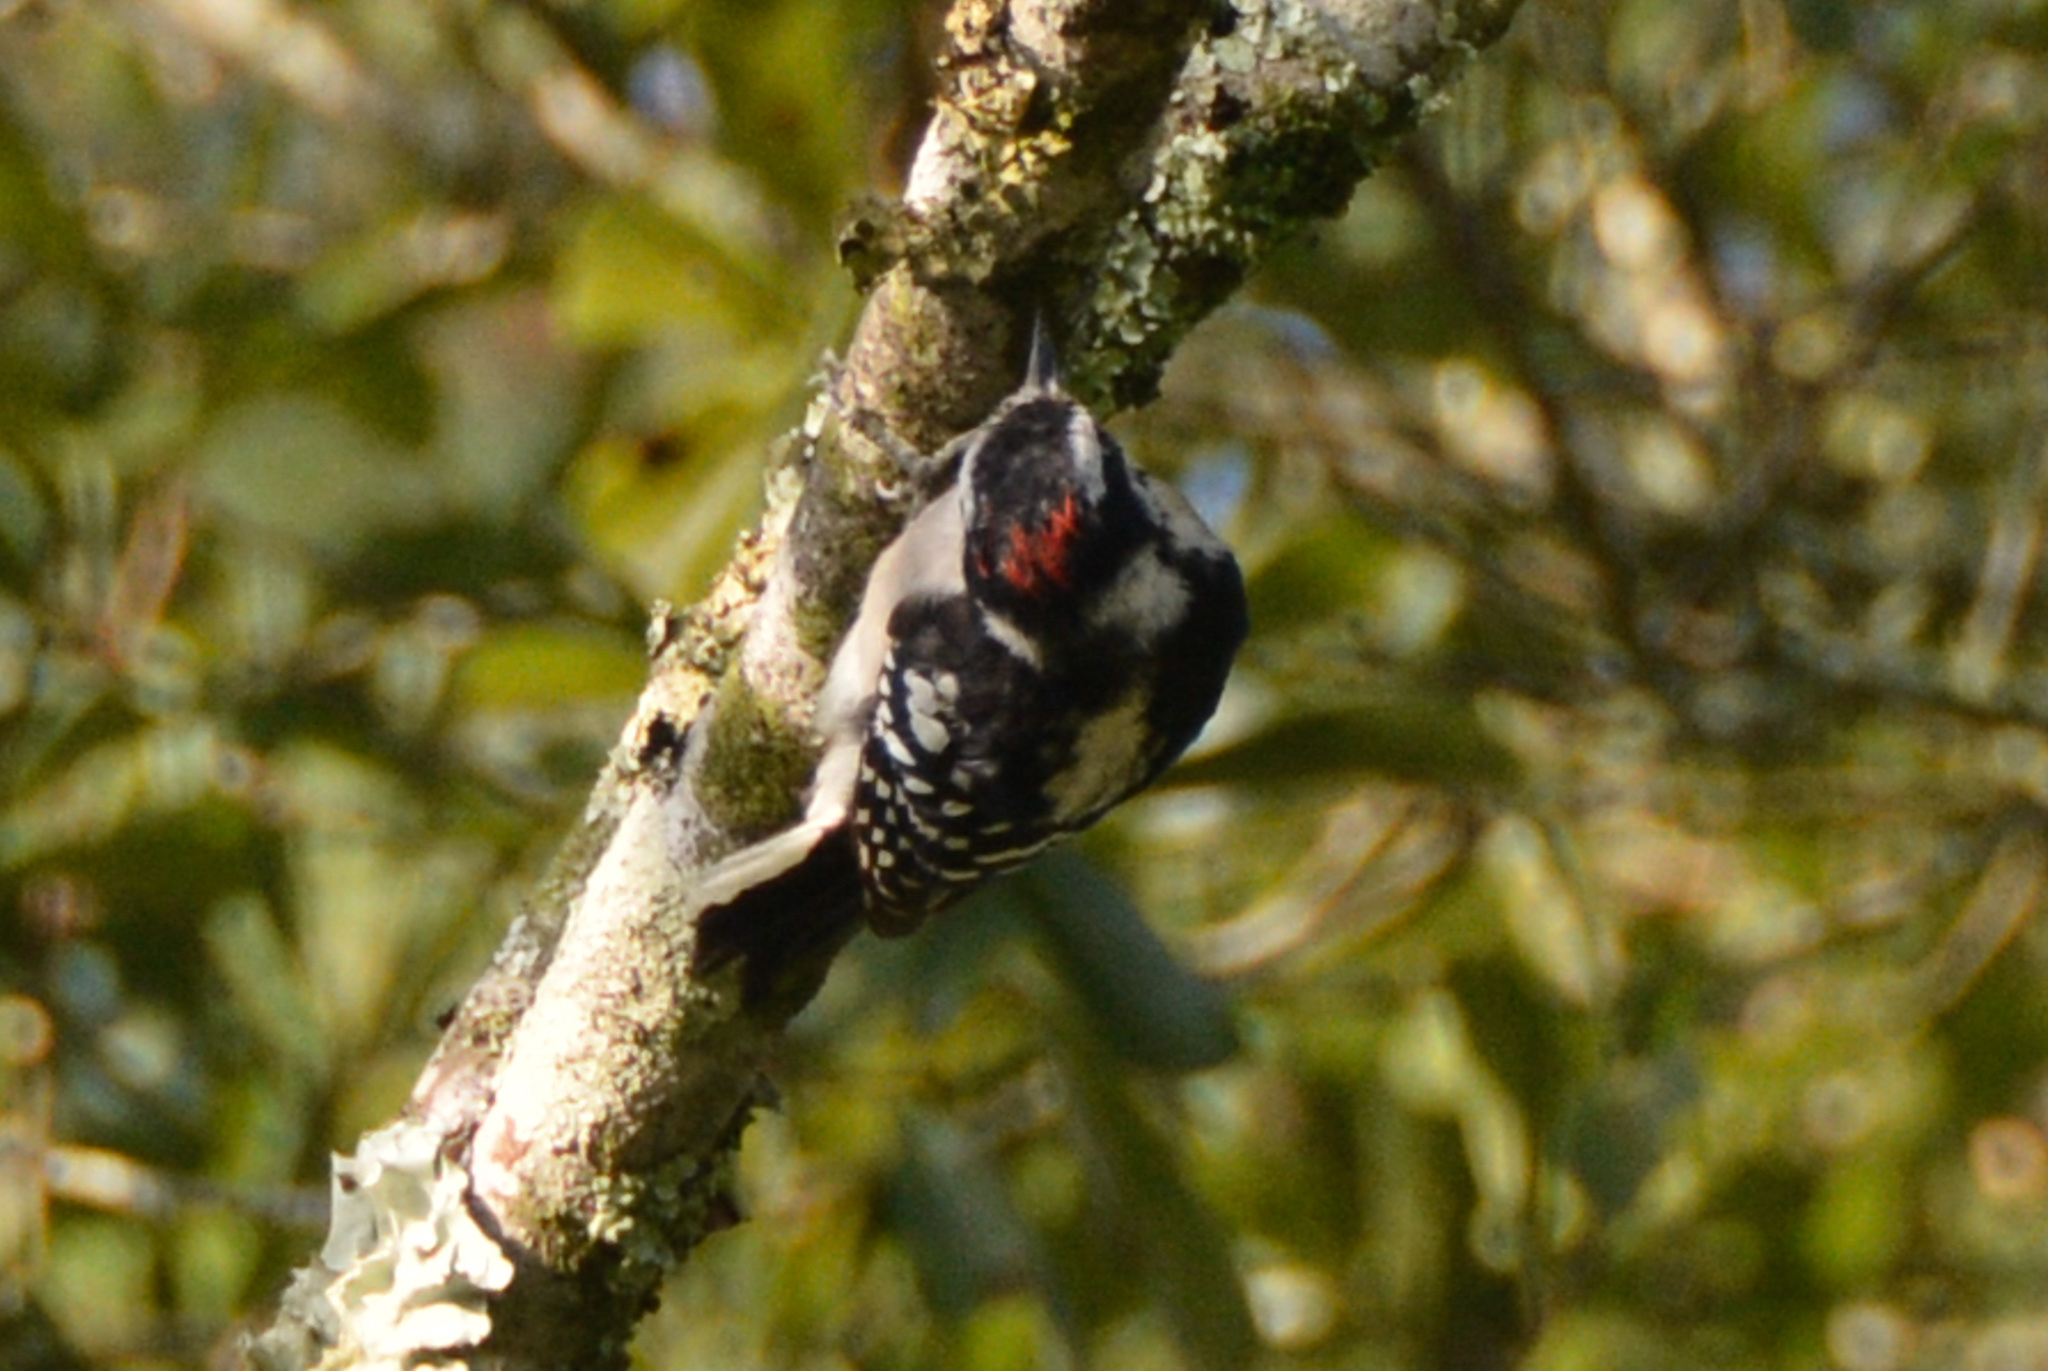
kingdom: Animalia
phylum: Chordata
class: Aves
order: Piciformes
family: Picidae
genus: Dryobates
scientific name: Dryobates pubescens
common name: Downy woodpecker
